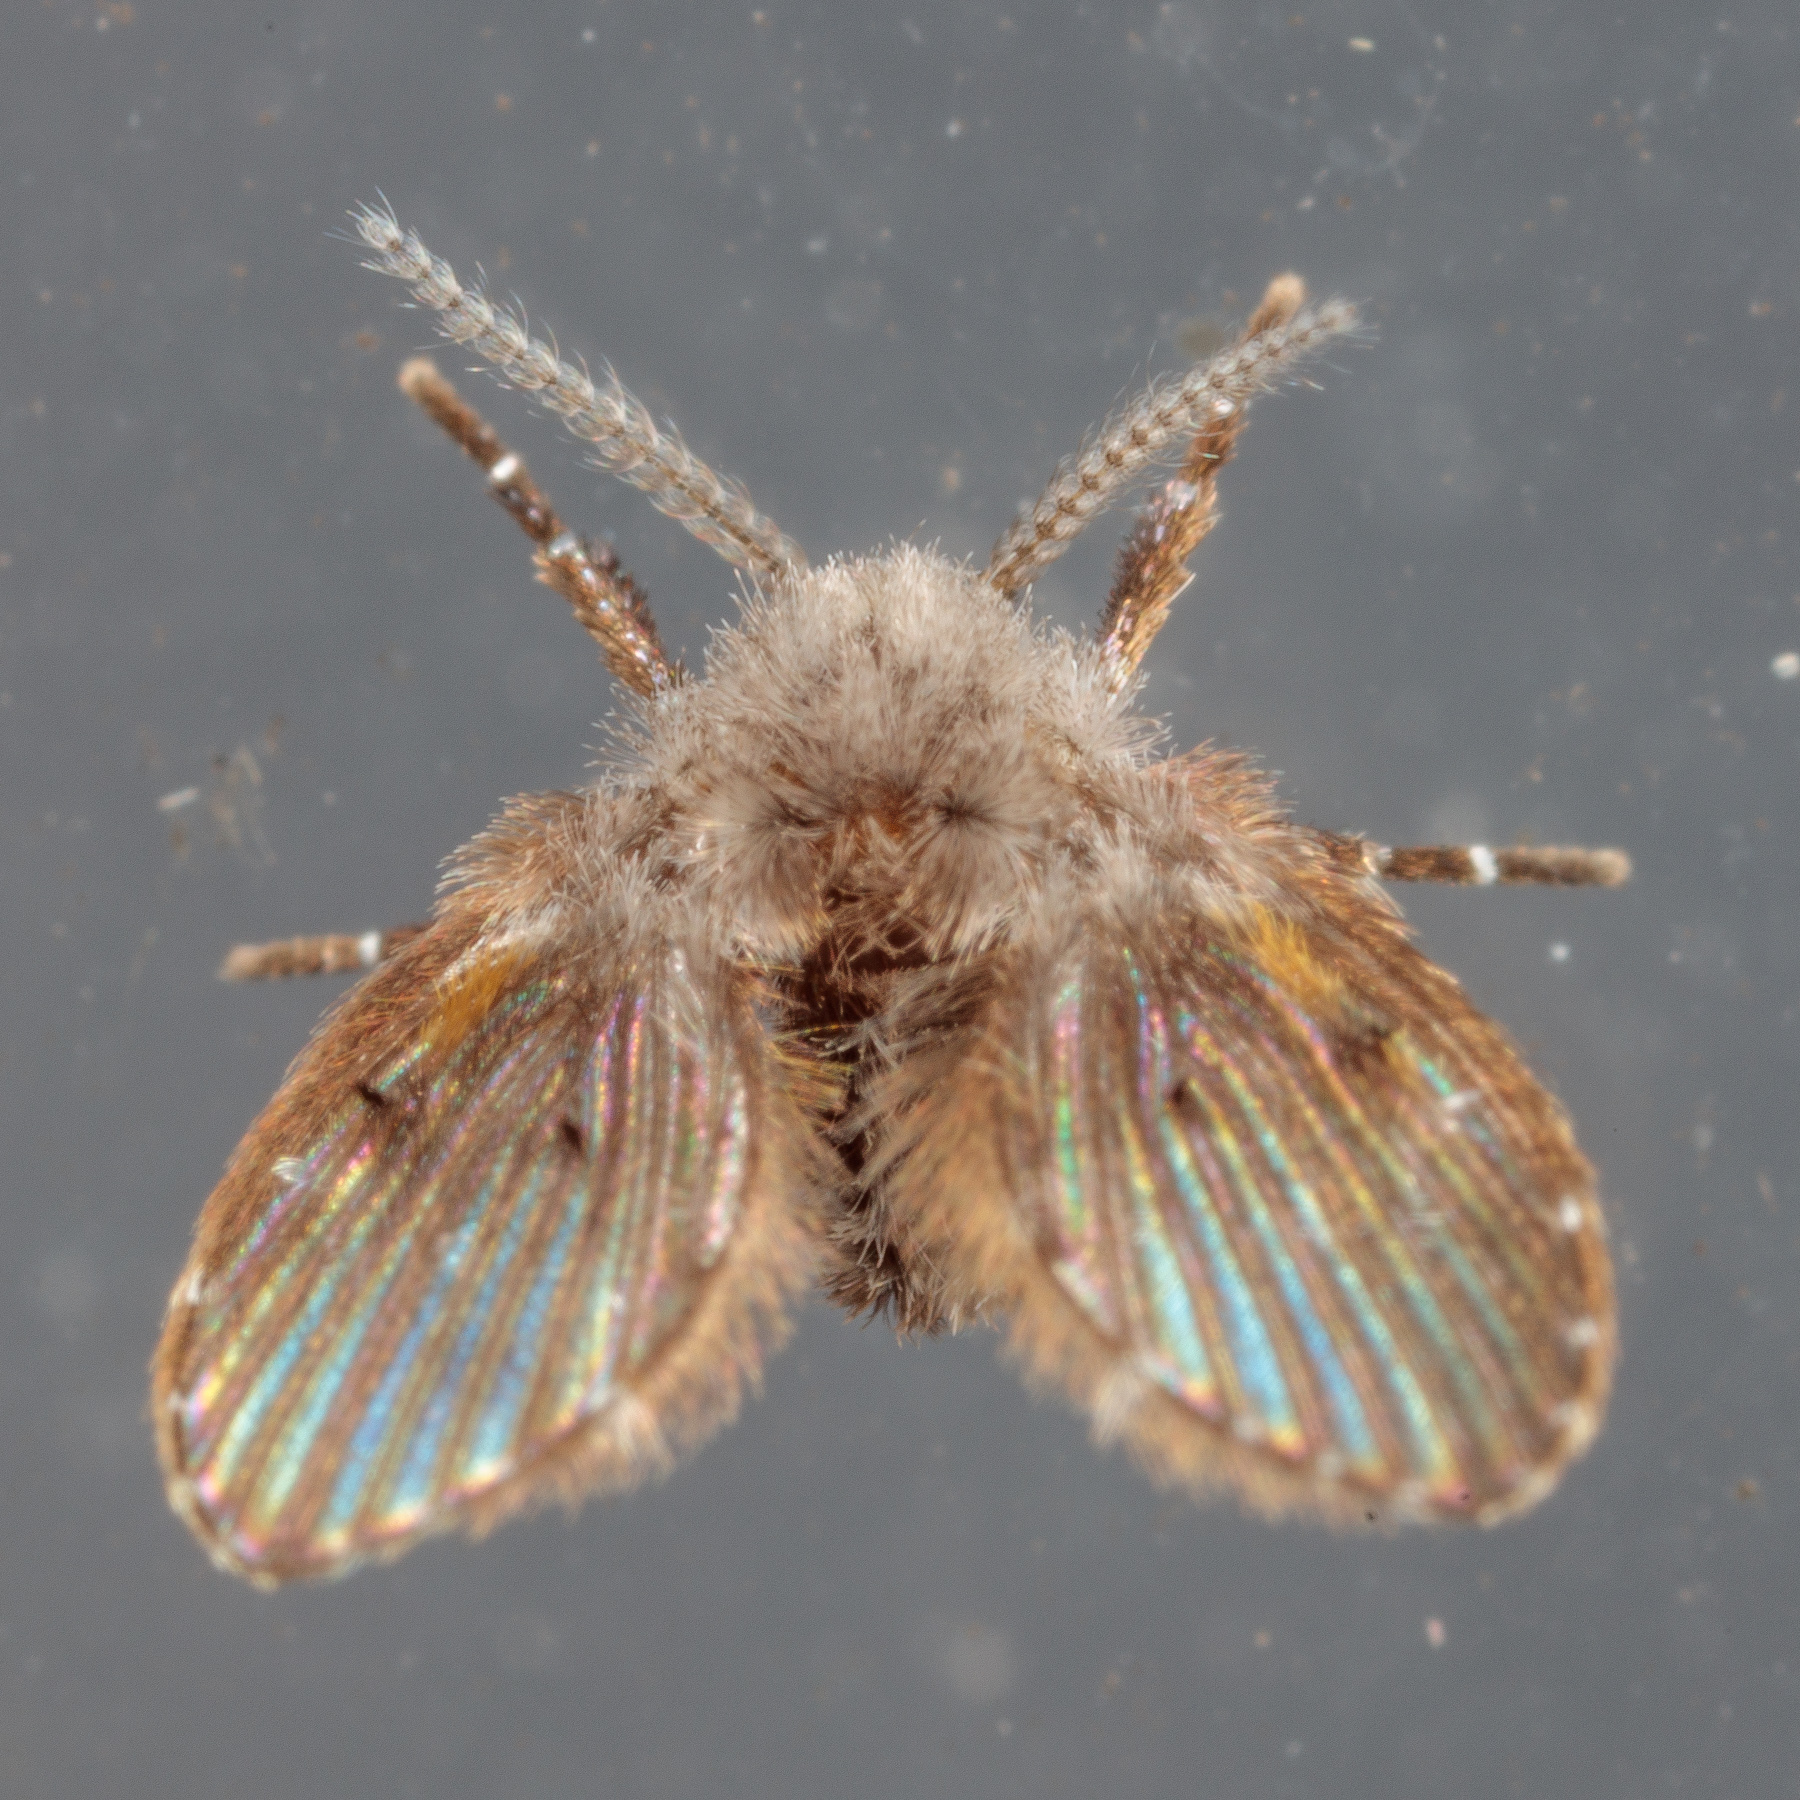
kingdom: Animalia
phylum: Arthropoda
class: Insecta
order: Diptera
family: Psychodidae
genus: Clogmia
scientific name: Clogmia albipunctatus
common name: White-spotted moth fly
